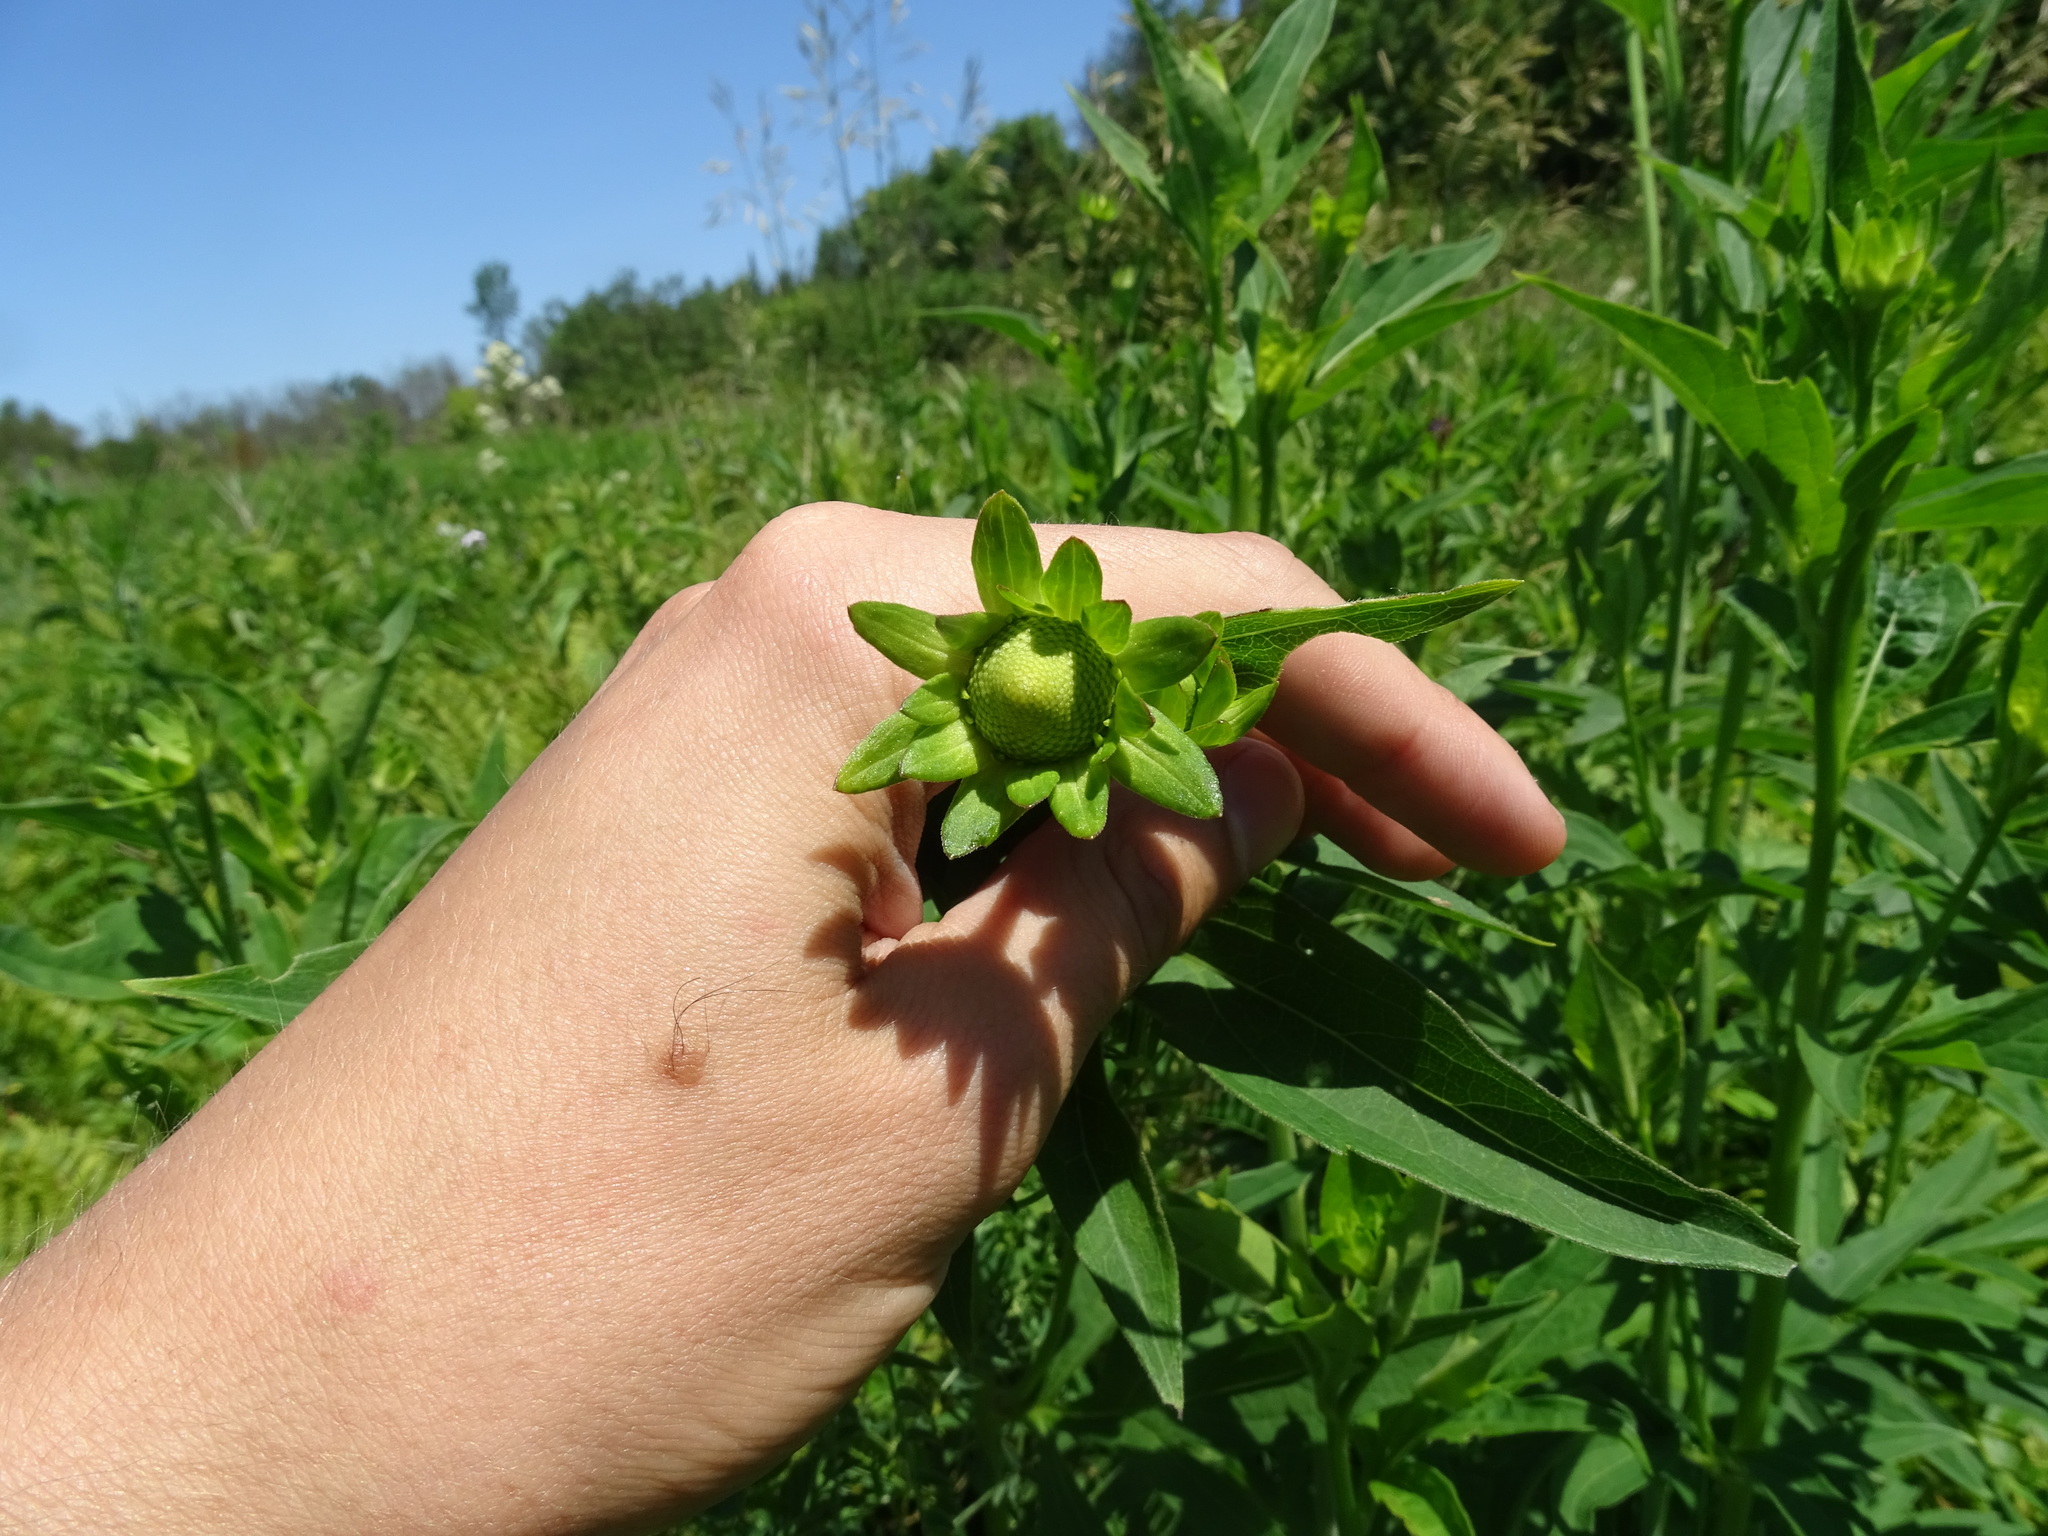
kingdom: Plantae
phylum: Tracheophyta
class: Magnoliopsida
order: Asterales
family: Asteraceae
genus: Rudbeckia
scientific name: Rudbeckia laciniata
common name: Coneflower
